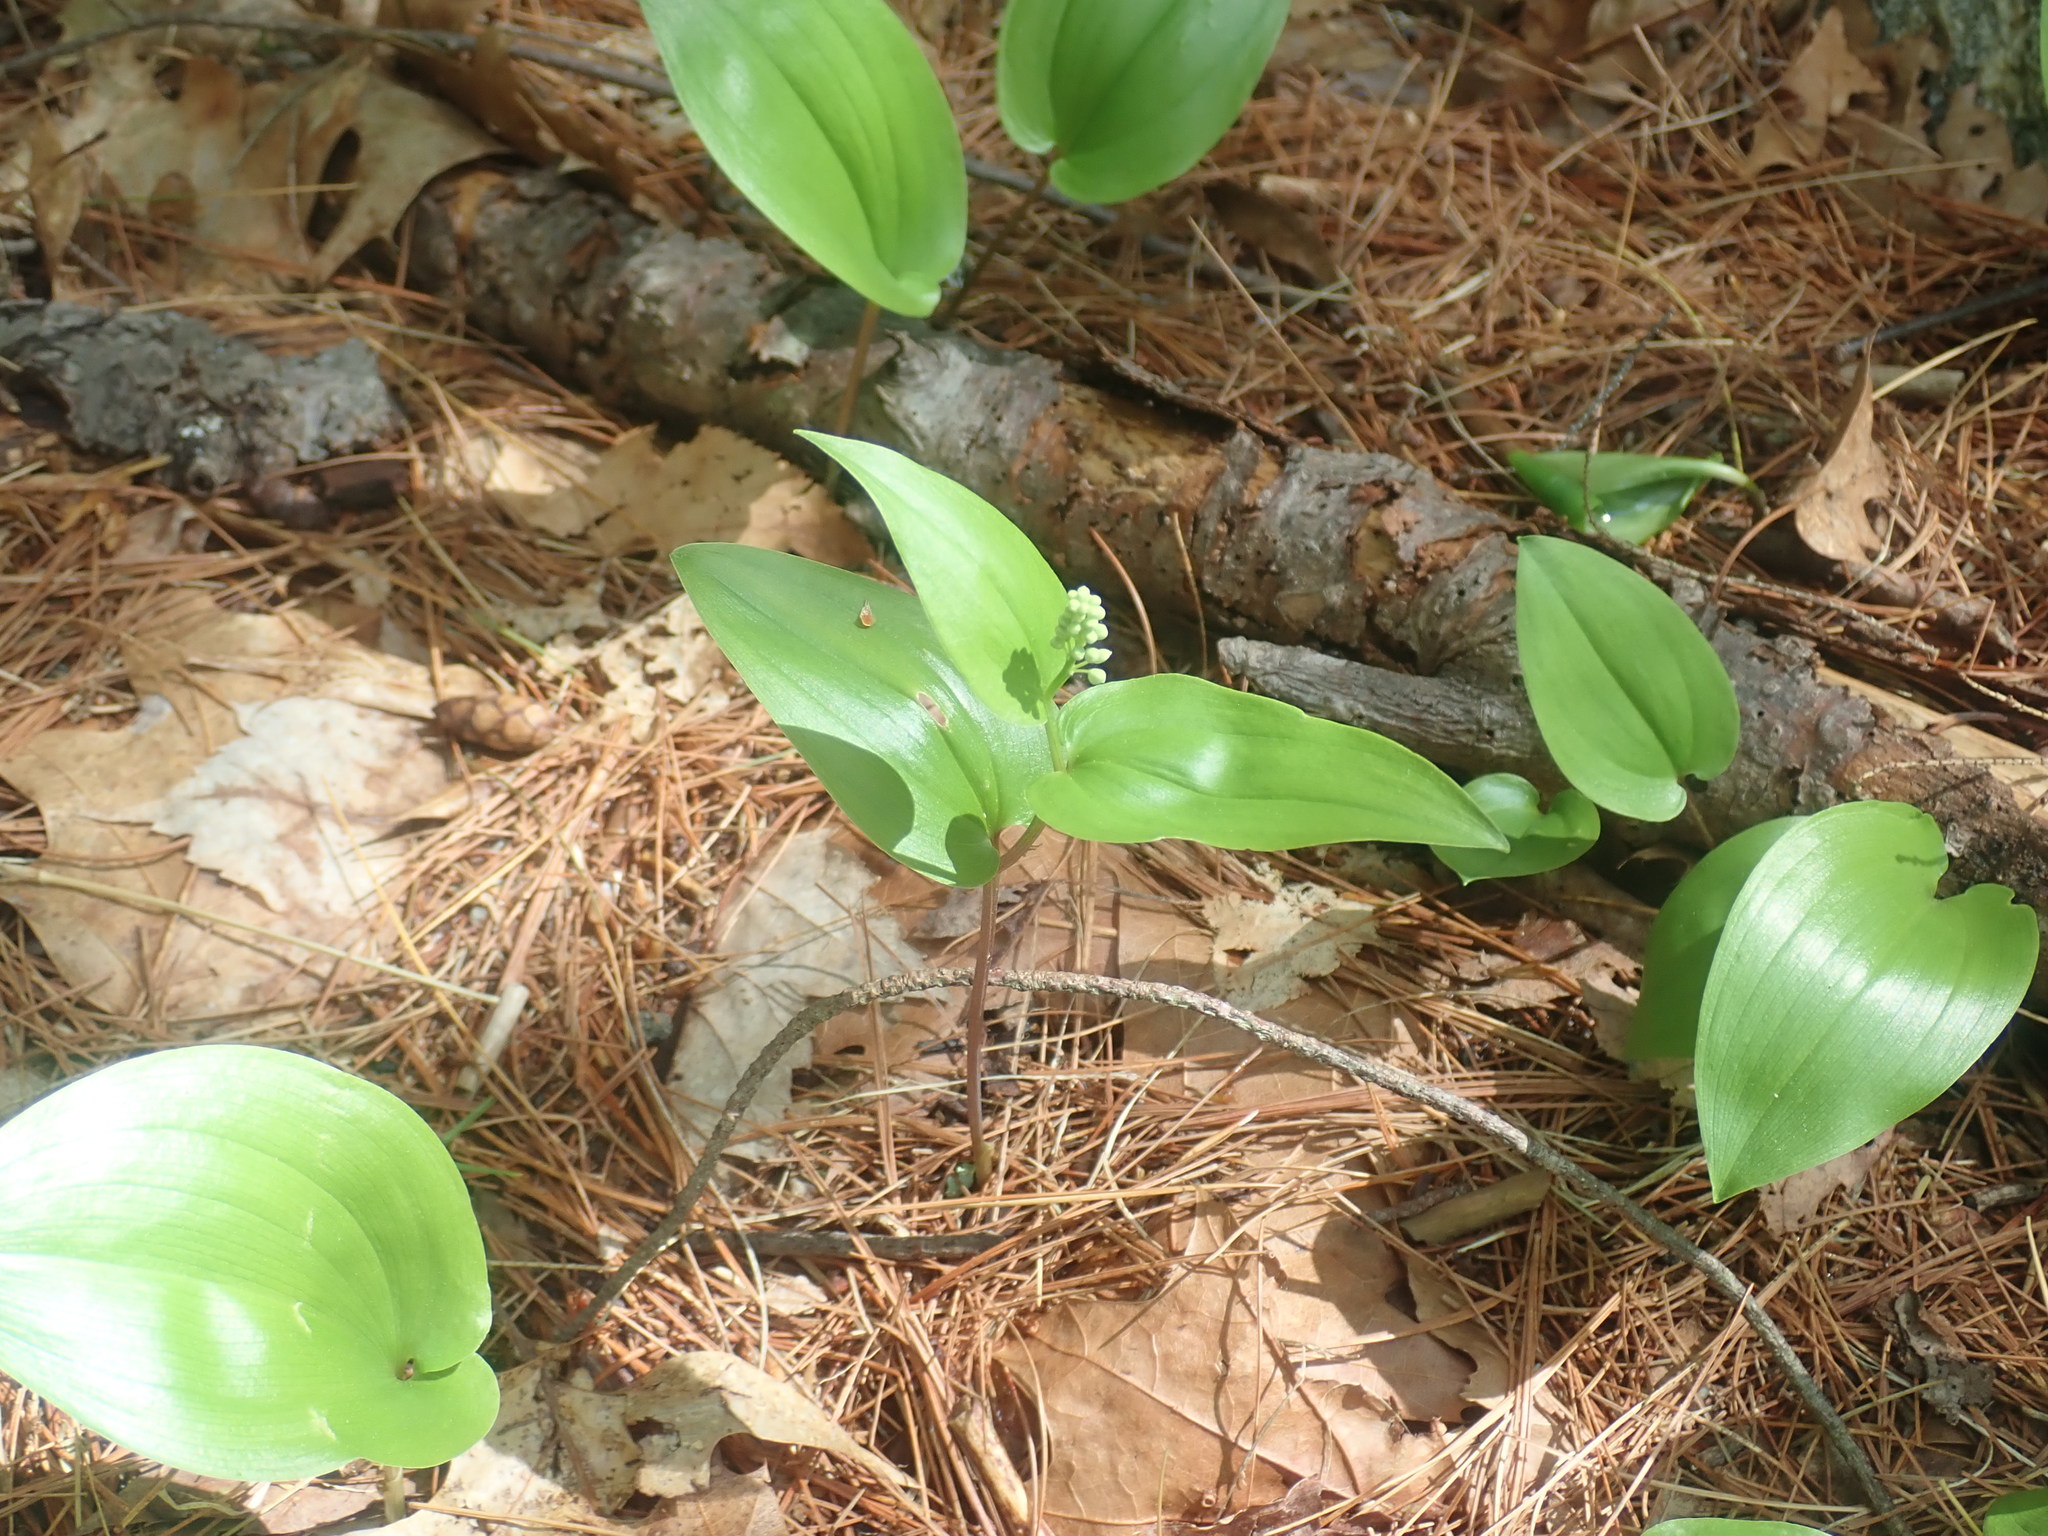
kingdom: Plantae
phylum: Tracheophyta
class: Liliopsida
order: Asparagales
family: Asparagaceae
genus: Maianthemum
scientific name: Maianthemum canadense
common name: False lily-of-the-valley
